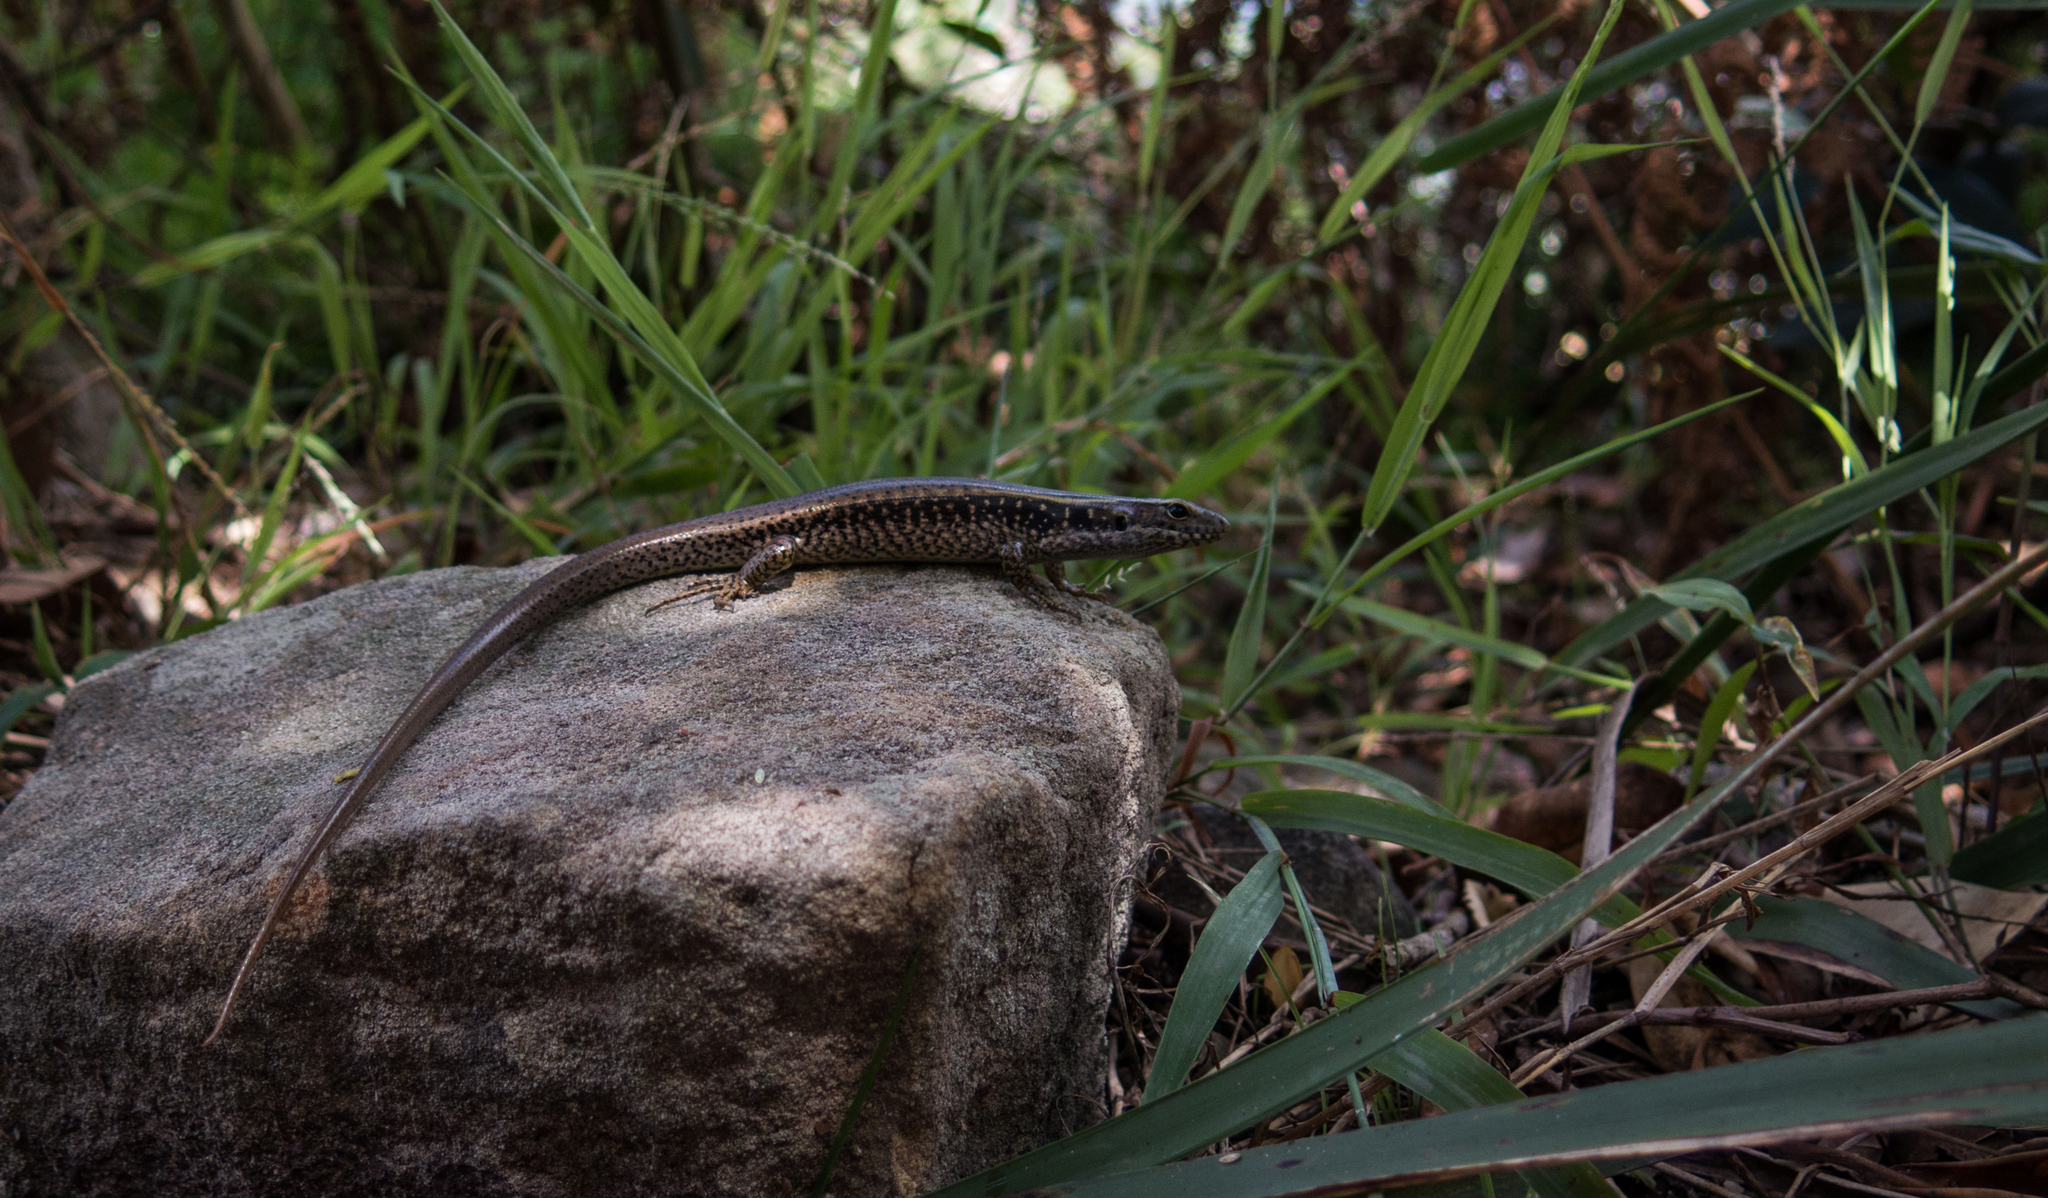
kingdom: Animalia
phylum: Chordata
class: Squamata
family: Scincidae
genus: Eulamprus
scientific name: Eulamprus quoyii
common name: Eastern water skink
